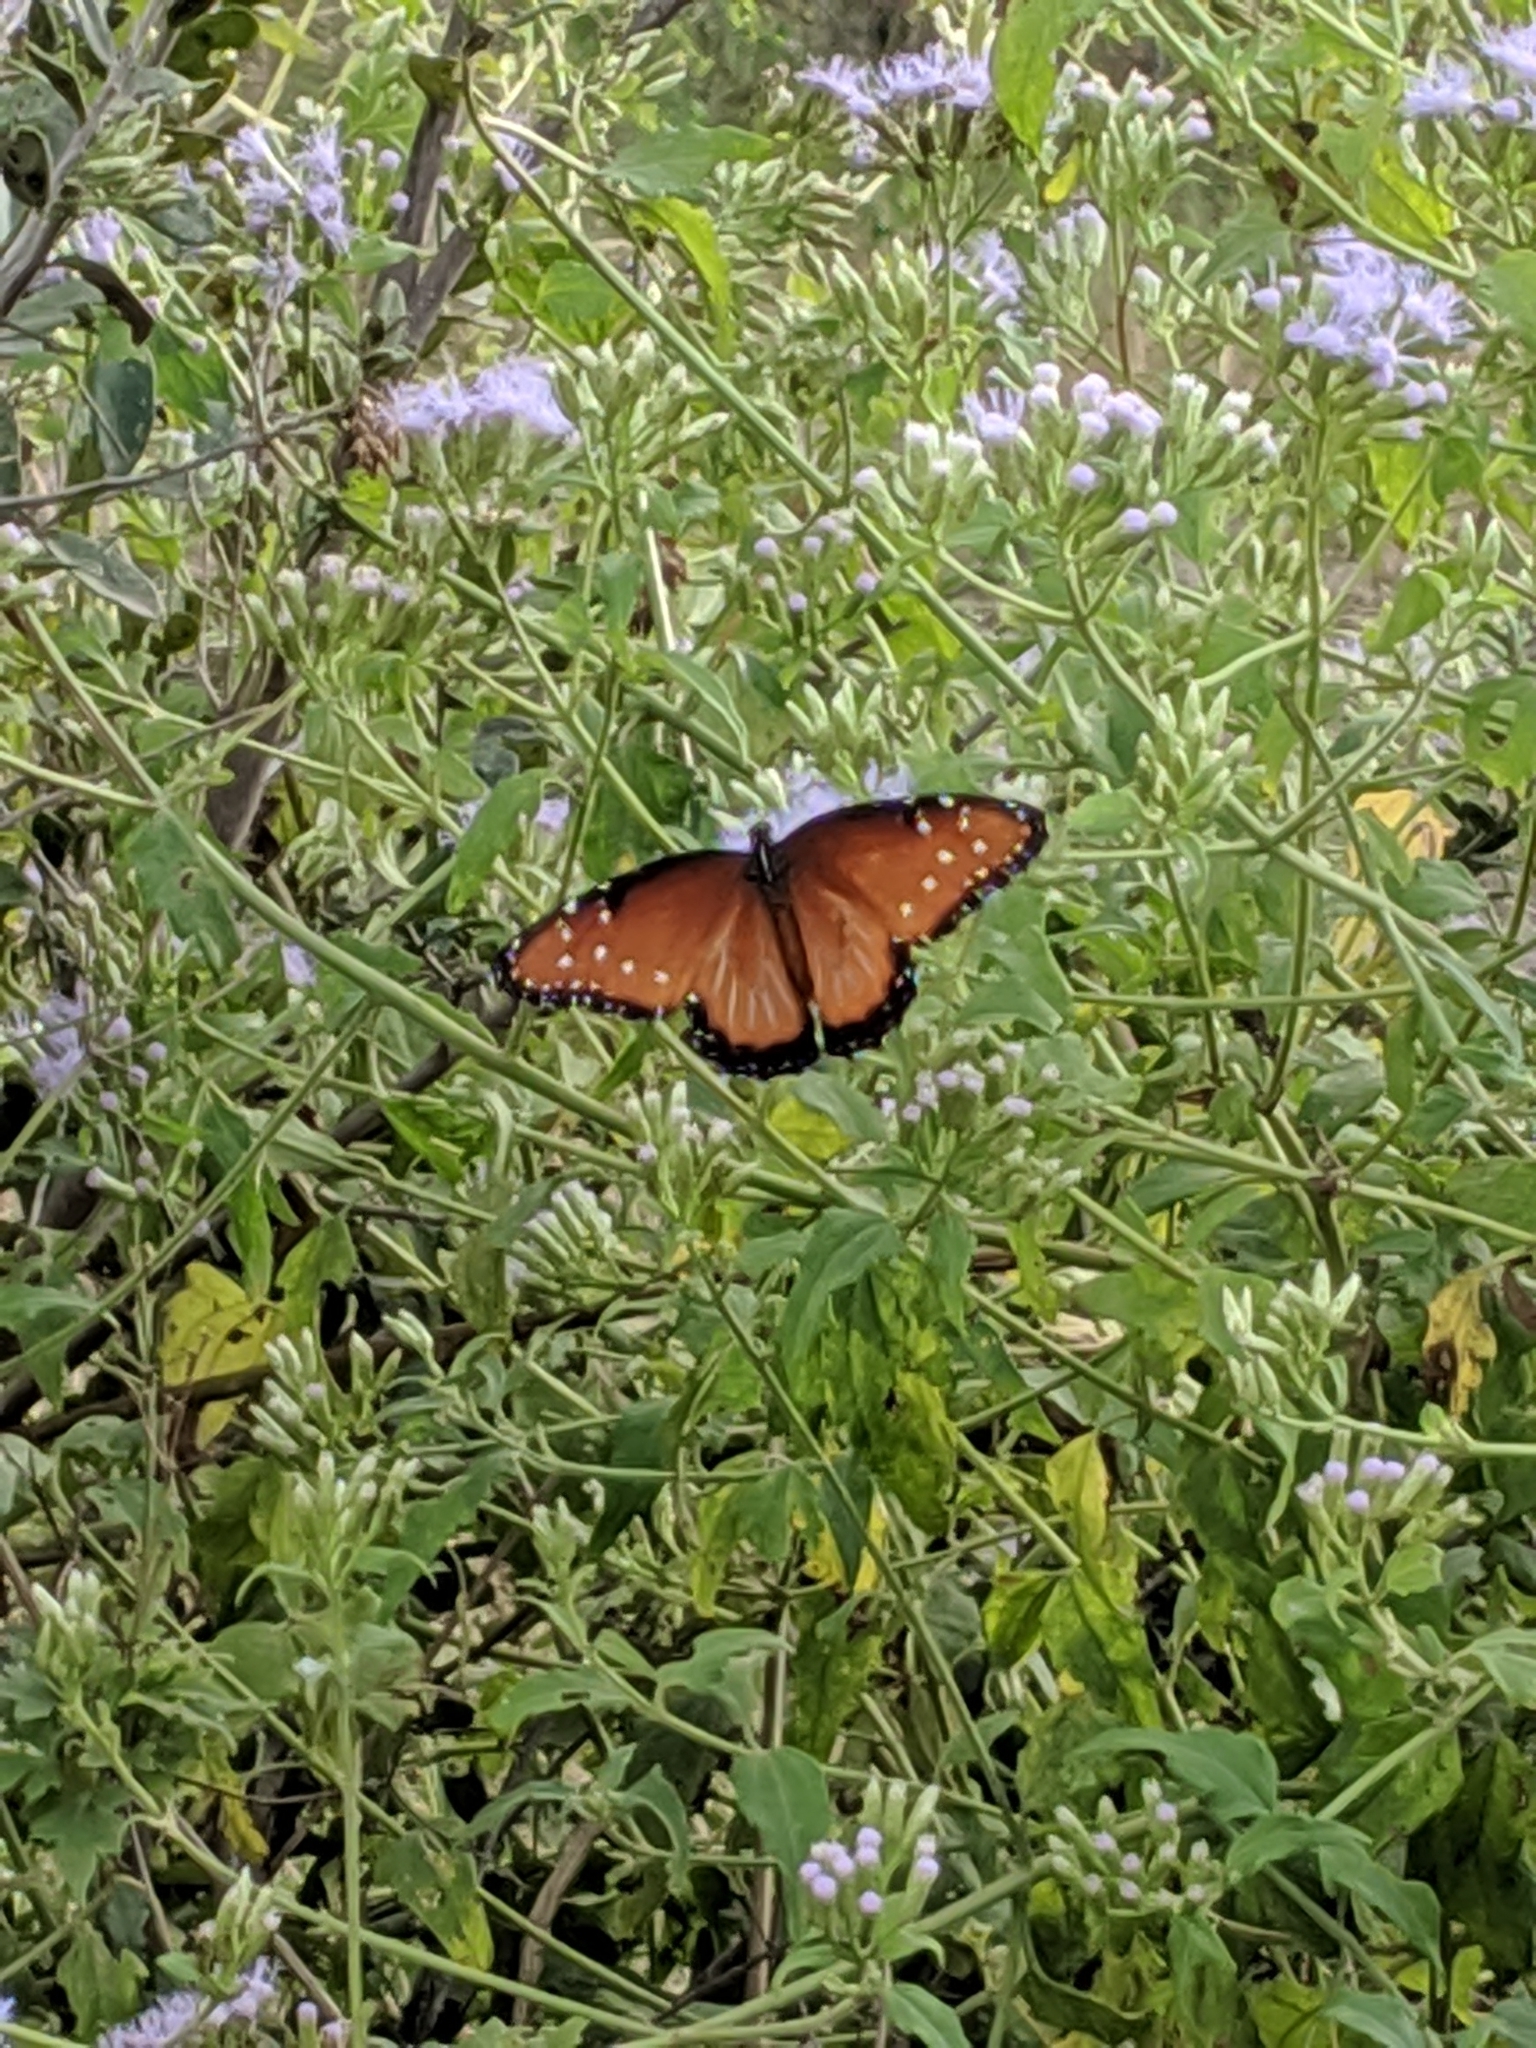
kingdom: Animalia
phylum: Arthropoda
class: Insecta
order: Lepidoptera
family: Nymphalidae
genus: Danaus
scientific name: Danaus gilippus
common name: Queen
